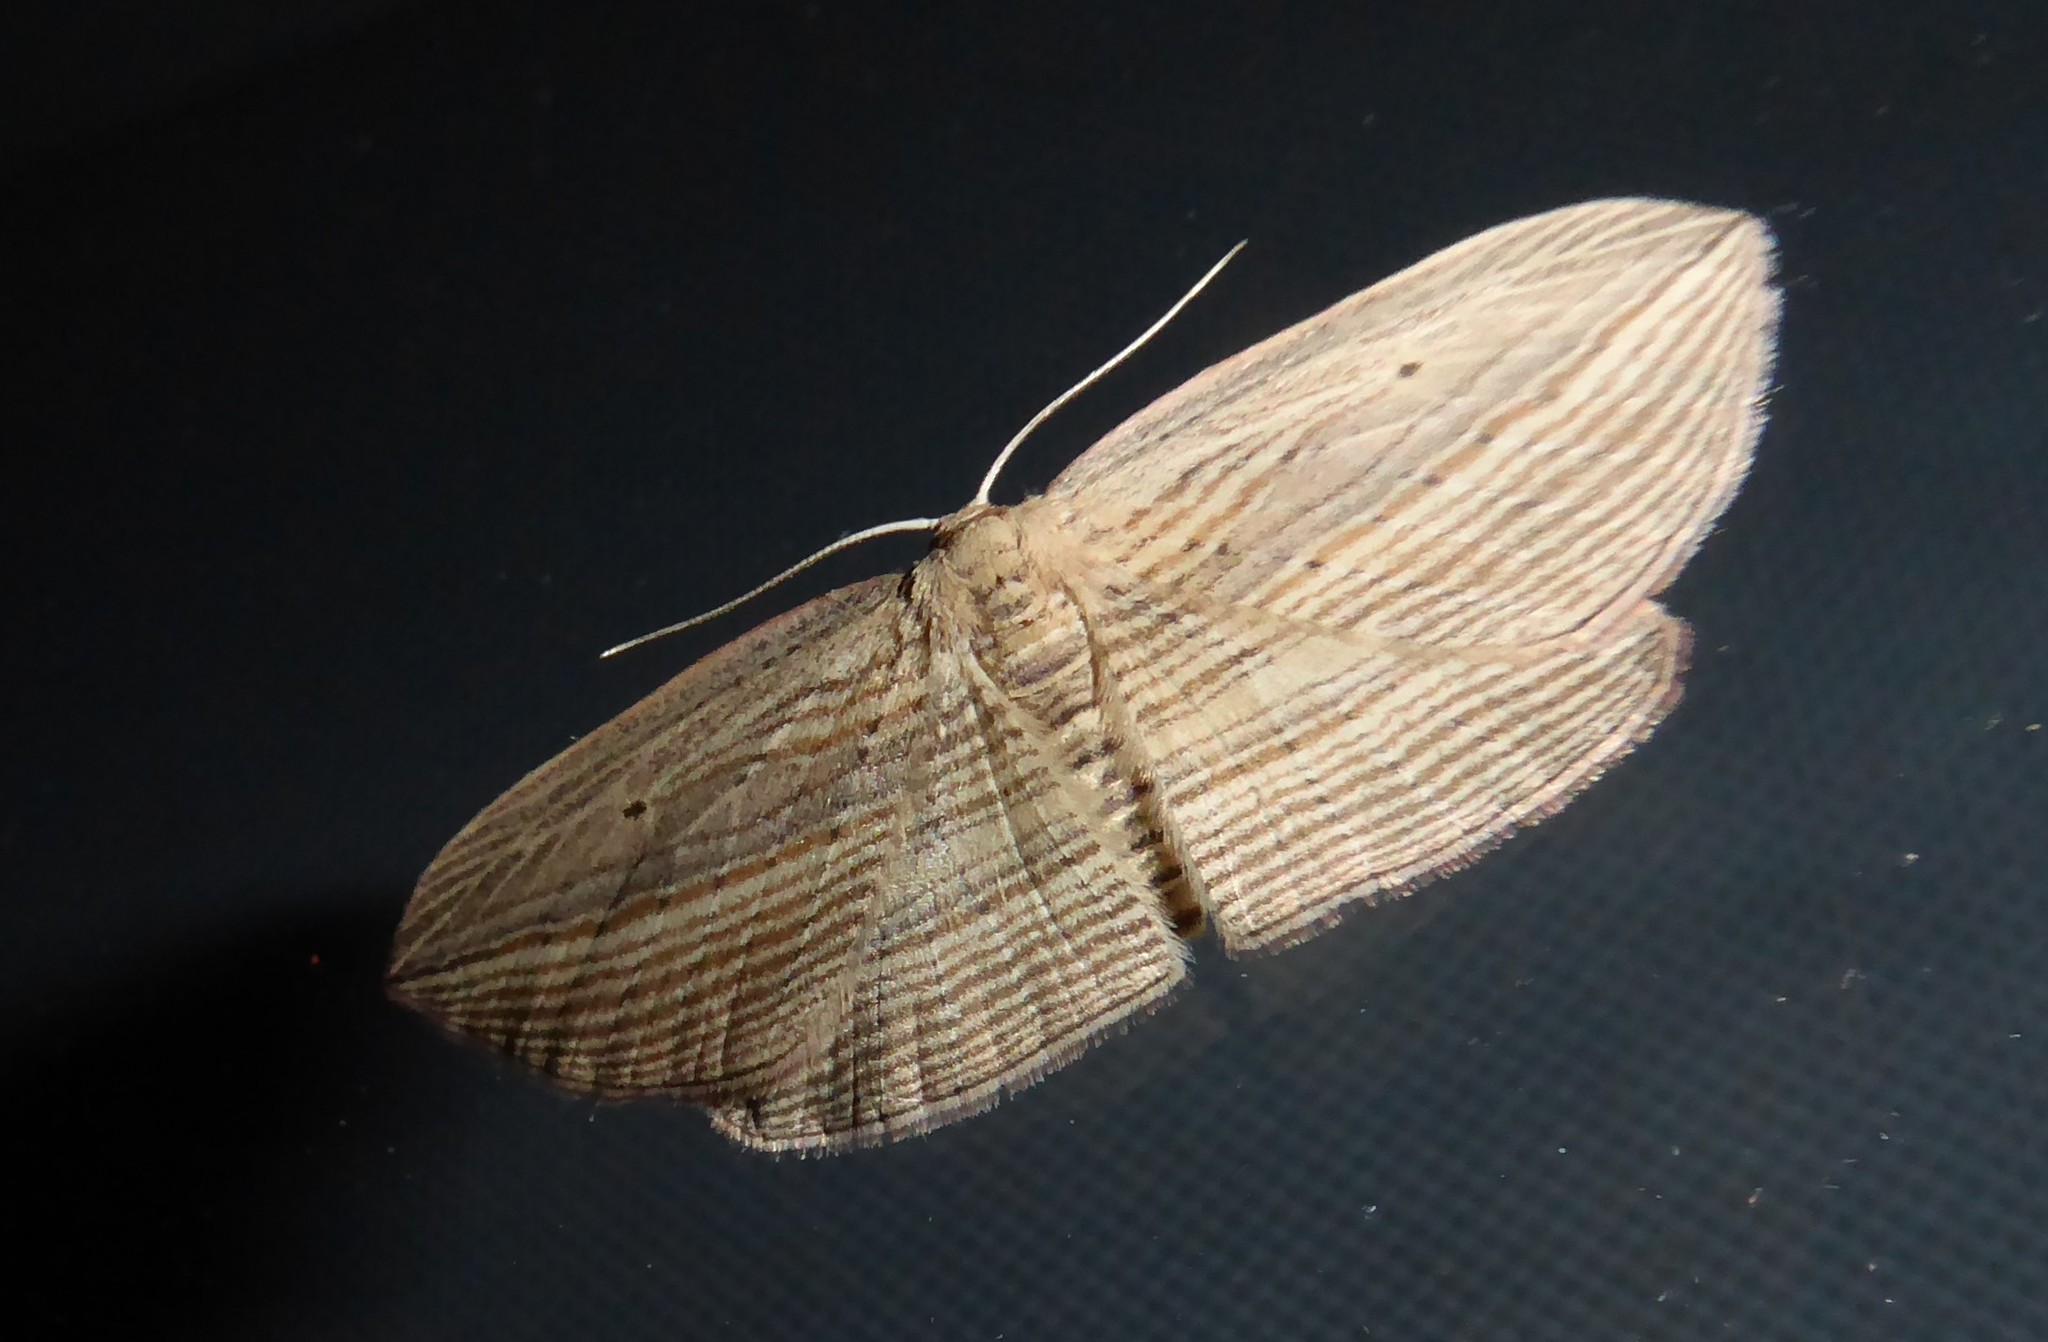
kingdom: Animalia
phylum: Arthropoda
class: Insecta
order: Lepidoptera
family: Geometridae
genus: Epiphryne
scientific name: Epiphryne verriculata
